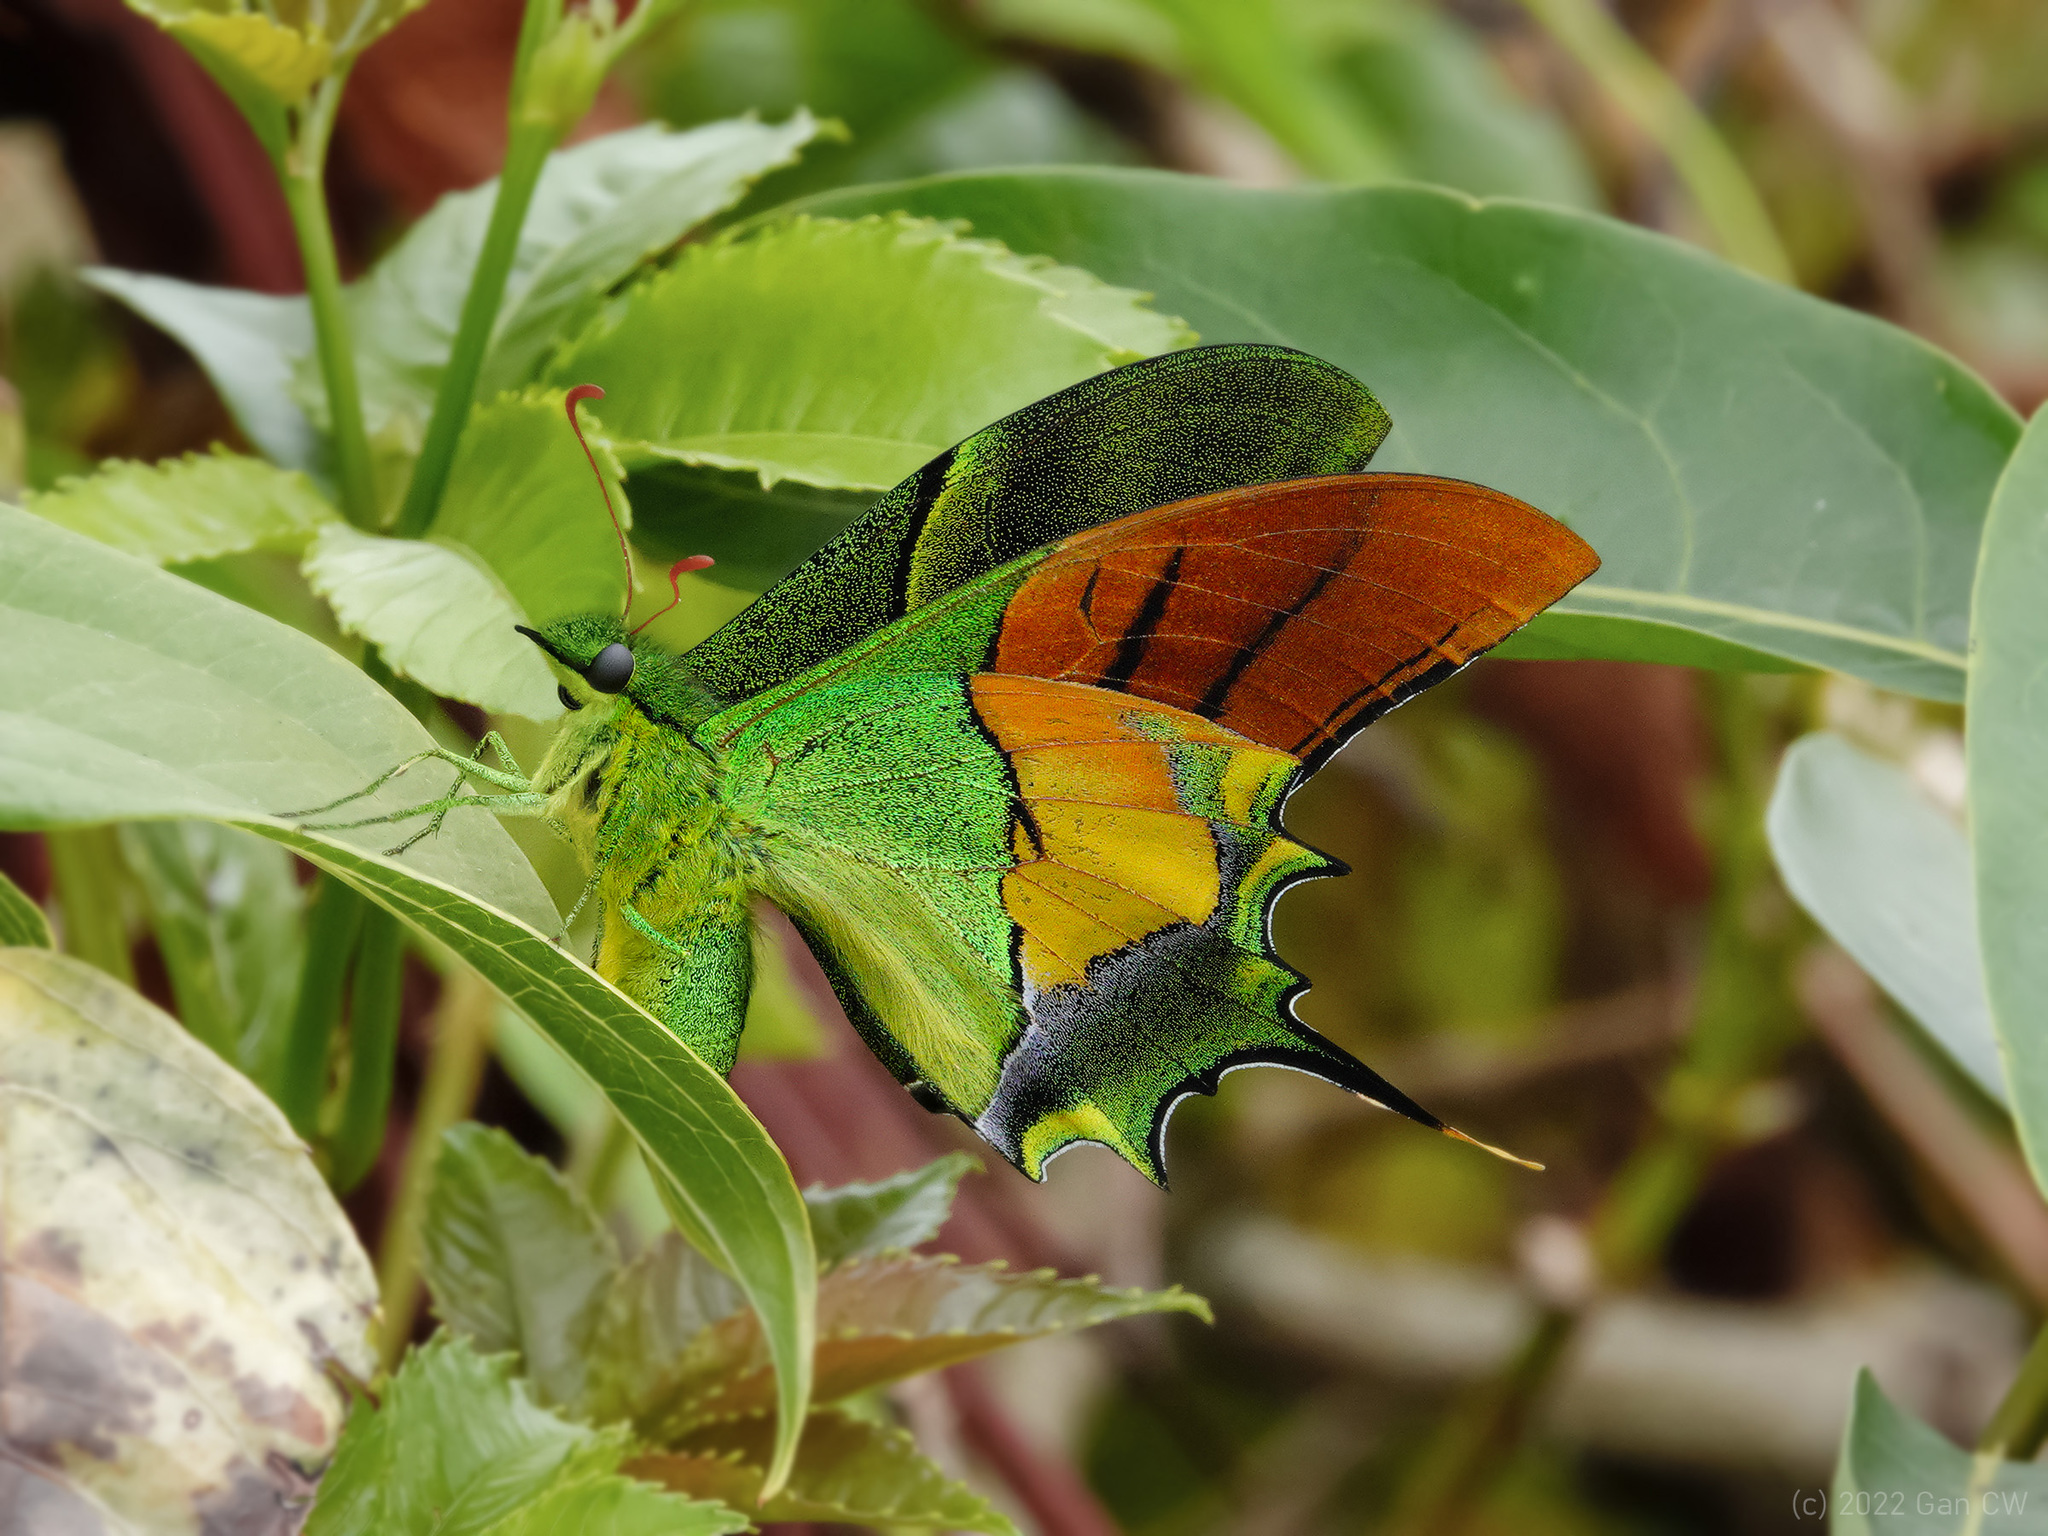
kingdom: Animalia
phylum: Arthropoda
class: Insecta
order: Lepidoptera
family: Papilionidae
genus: Teinopalpus
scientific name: Teinopalpus imperialis
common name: Kaiser-i-hind
